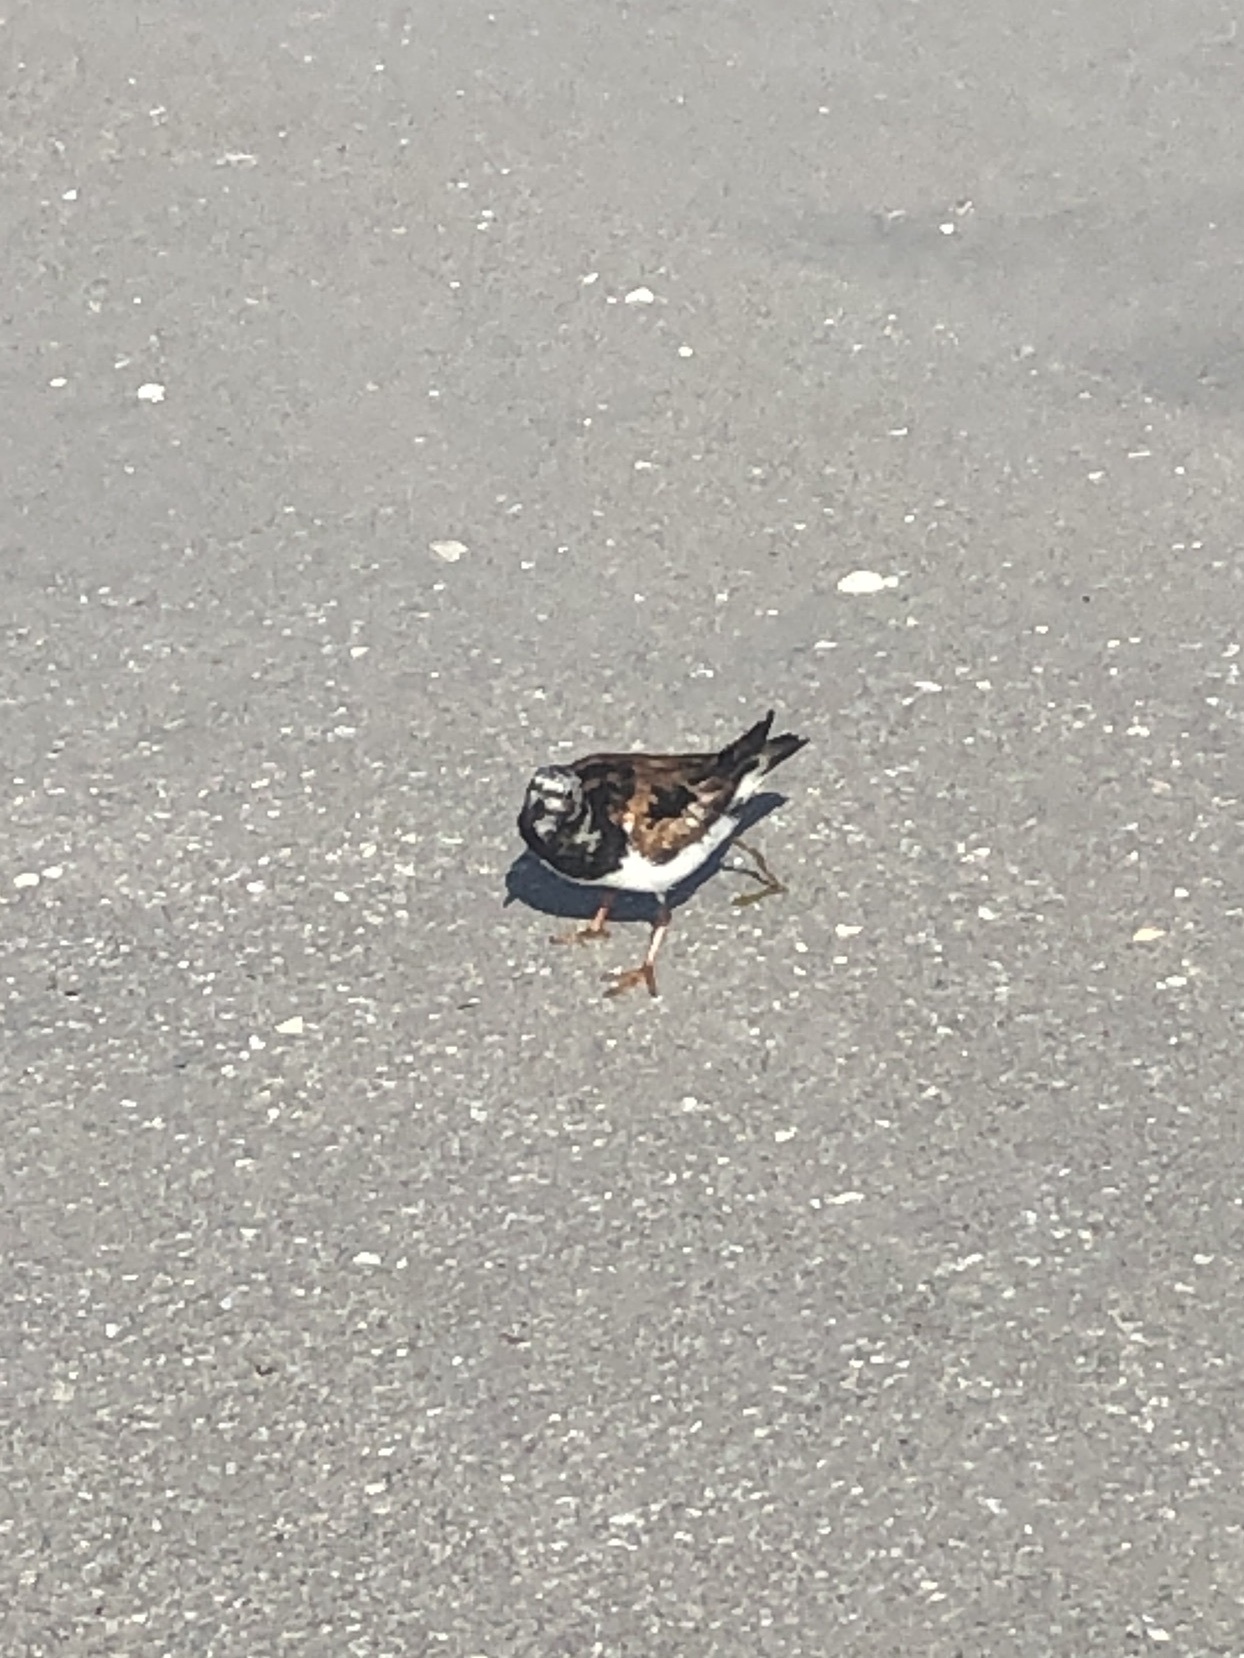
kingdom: Animalia
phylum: Chordata
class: Aves
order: Charadriiformes
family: Scolopacidae
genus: Arenaria
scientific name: Arenaria interpres
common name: Ruddy turnstone
